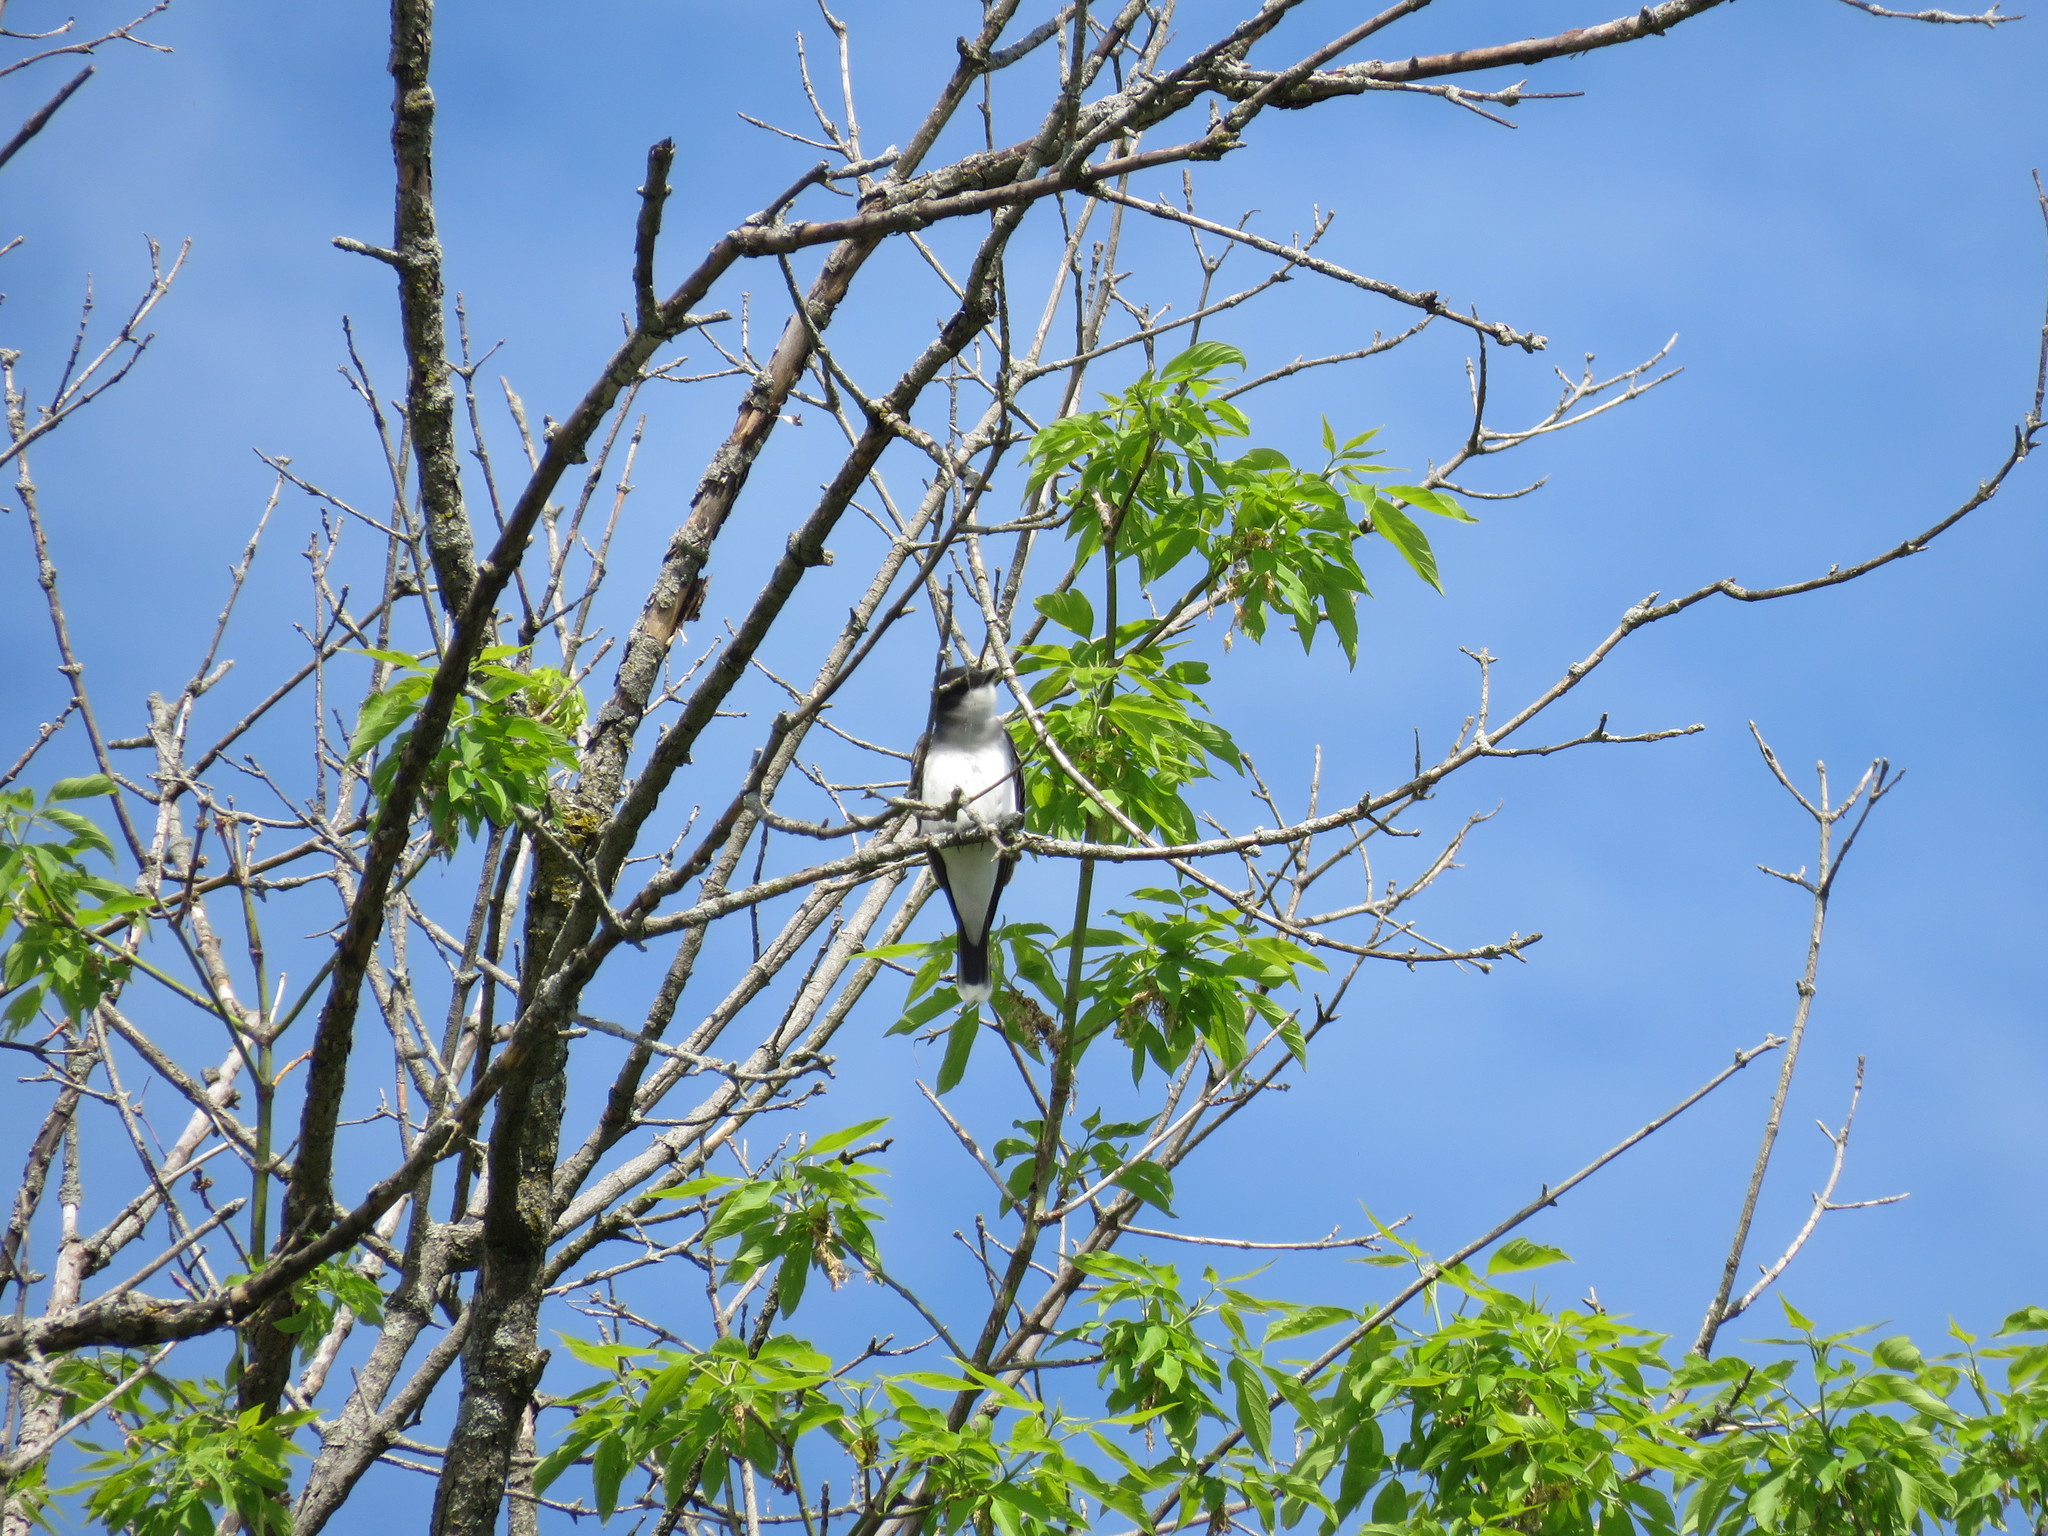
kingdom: Animalia
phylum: Chordata
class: Aves
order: Passeriformes
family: Tyrannidae
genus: Tyrannus
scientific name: Tyrannus tyrannus
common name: Eastern kingbird
